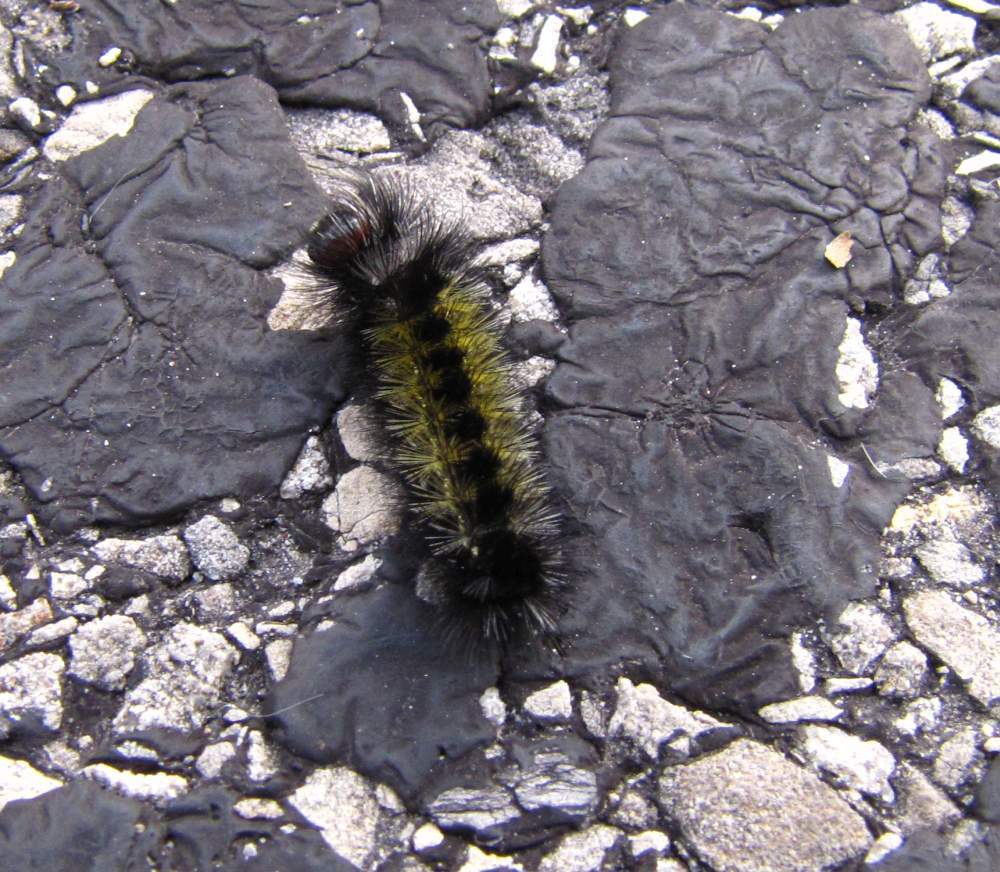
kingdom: Animalia
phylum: Arthropoda
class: Insecta
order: Lepidoptera
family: Erebidae
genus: Ctenucha
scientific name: Ctenucha virginica
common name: Virginia ctenucha moth
